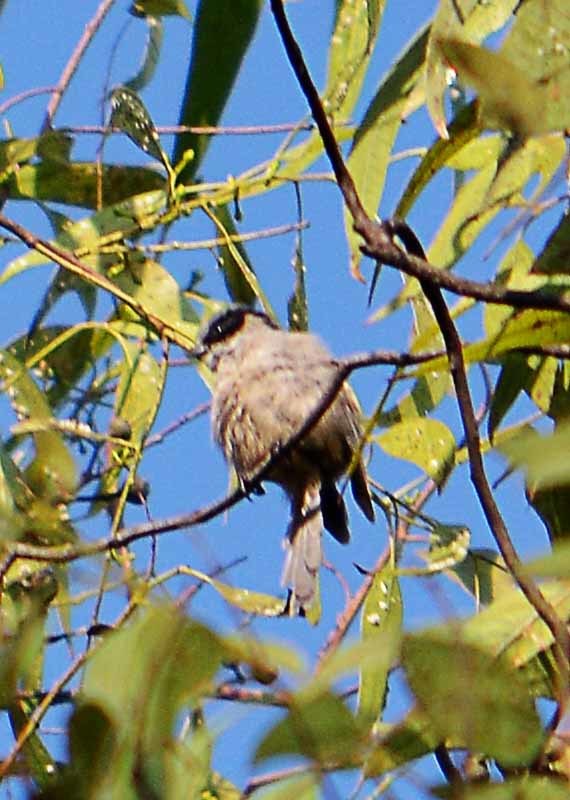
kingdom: Animalia
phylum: Chordata
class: Aves
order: Passeriformes
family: Aegithalidae
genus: Psaltriparus
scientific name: Psaltriparus minimus
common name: American bushtit
